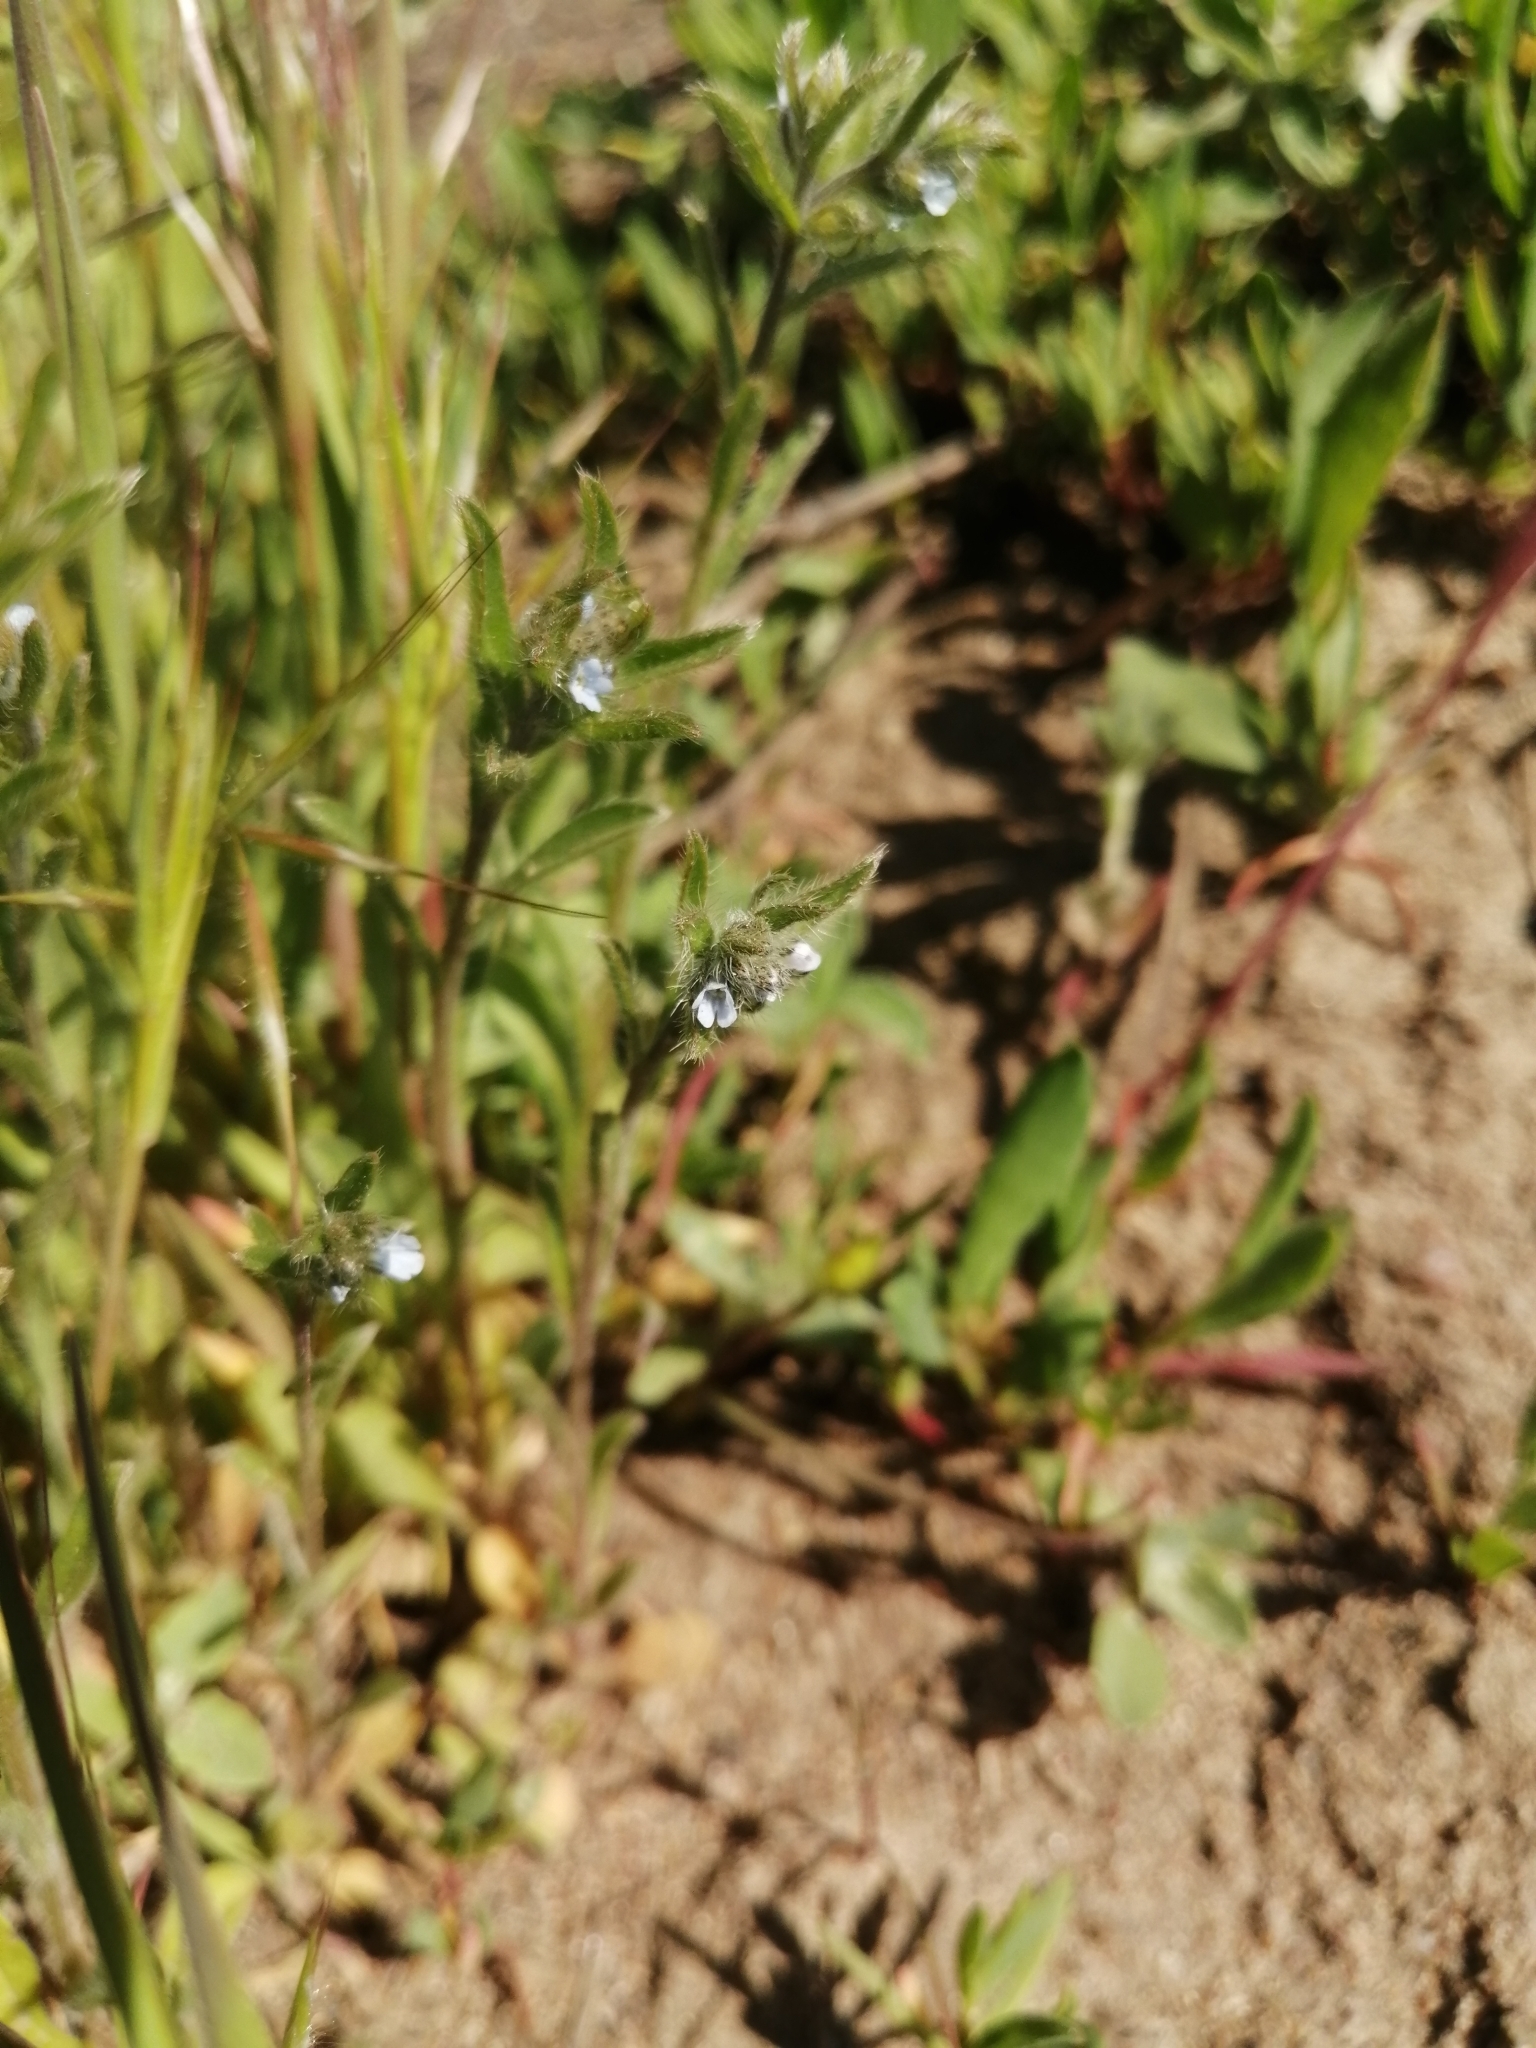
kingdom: Plantae
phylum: Tracheophyta
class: Magnoliopsida
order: Boraginales
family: Boraginaceae
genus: Lappula
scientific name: Lappula squarrosa
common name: European stickseed
